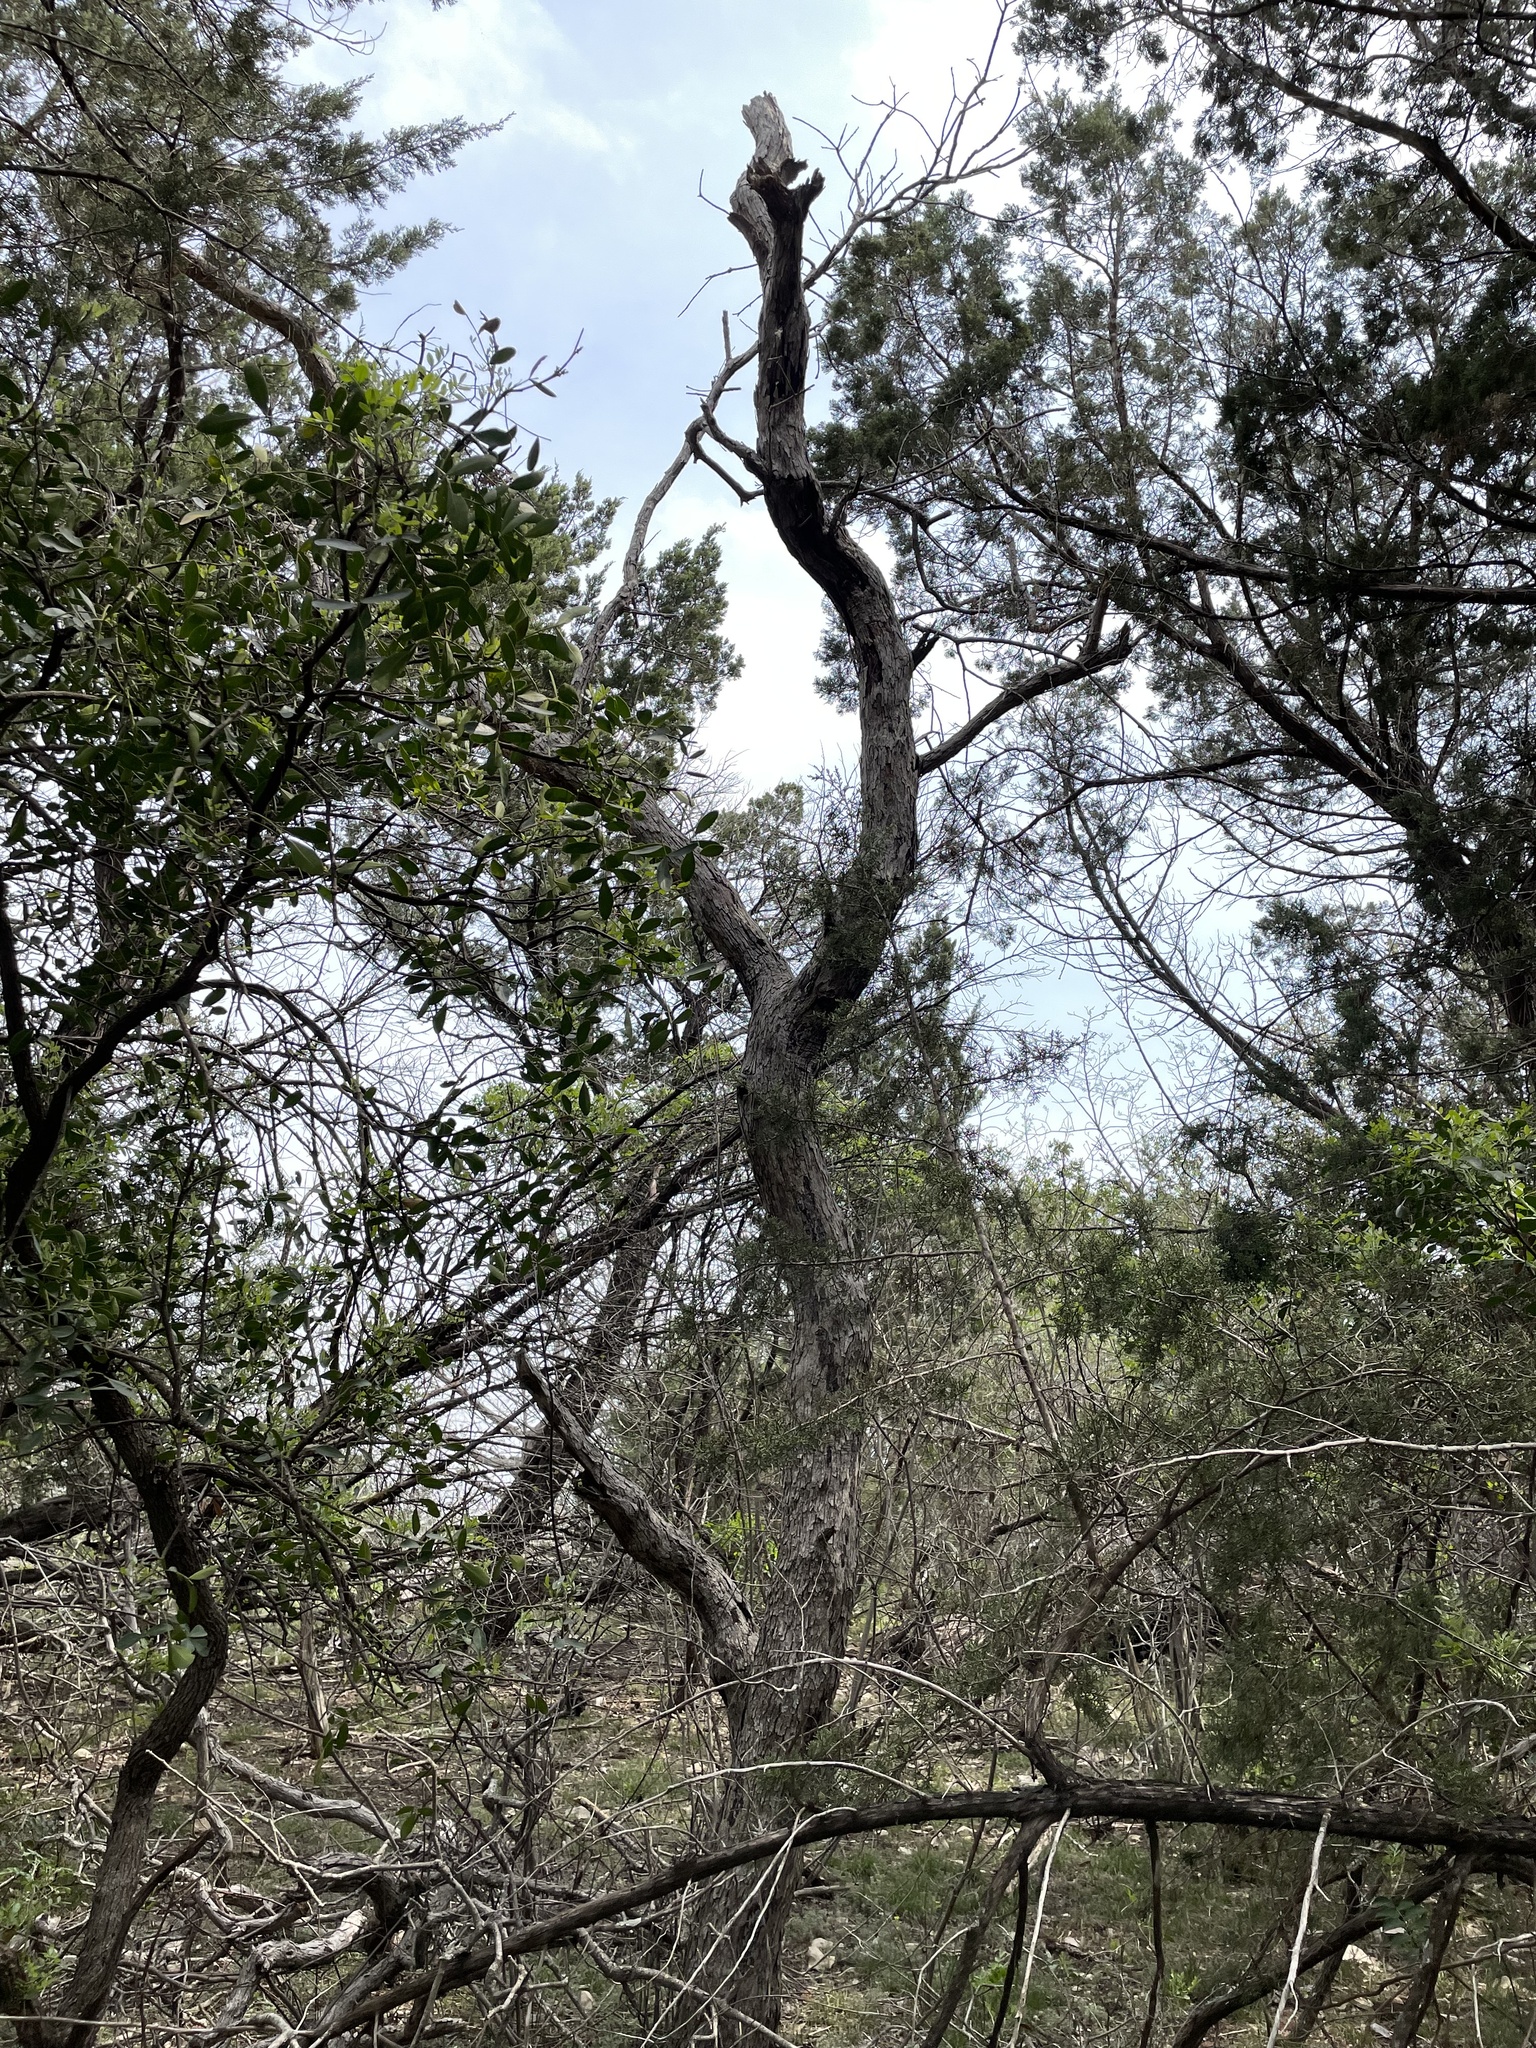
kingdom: Plantae
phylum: Tracheophyta
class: Magnoliopsida
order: Fagales
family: Fagaceae
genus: Quercus
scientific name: Quercus sinuata
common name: Durand oak
